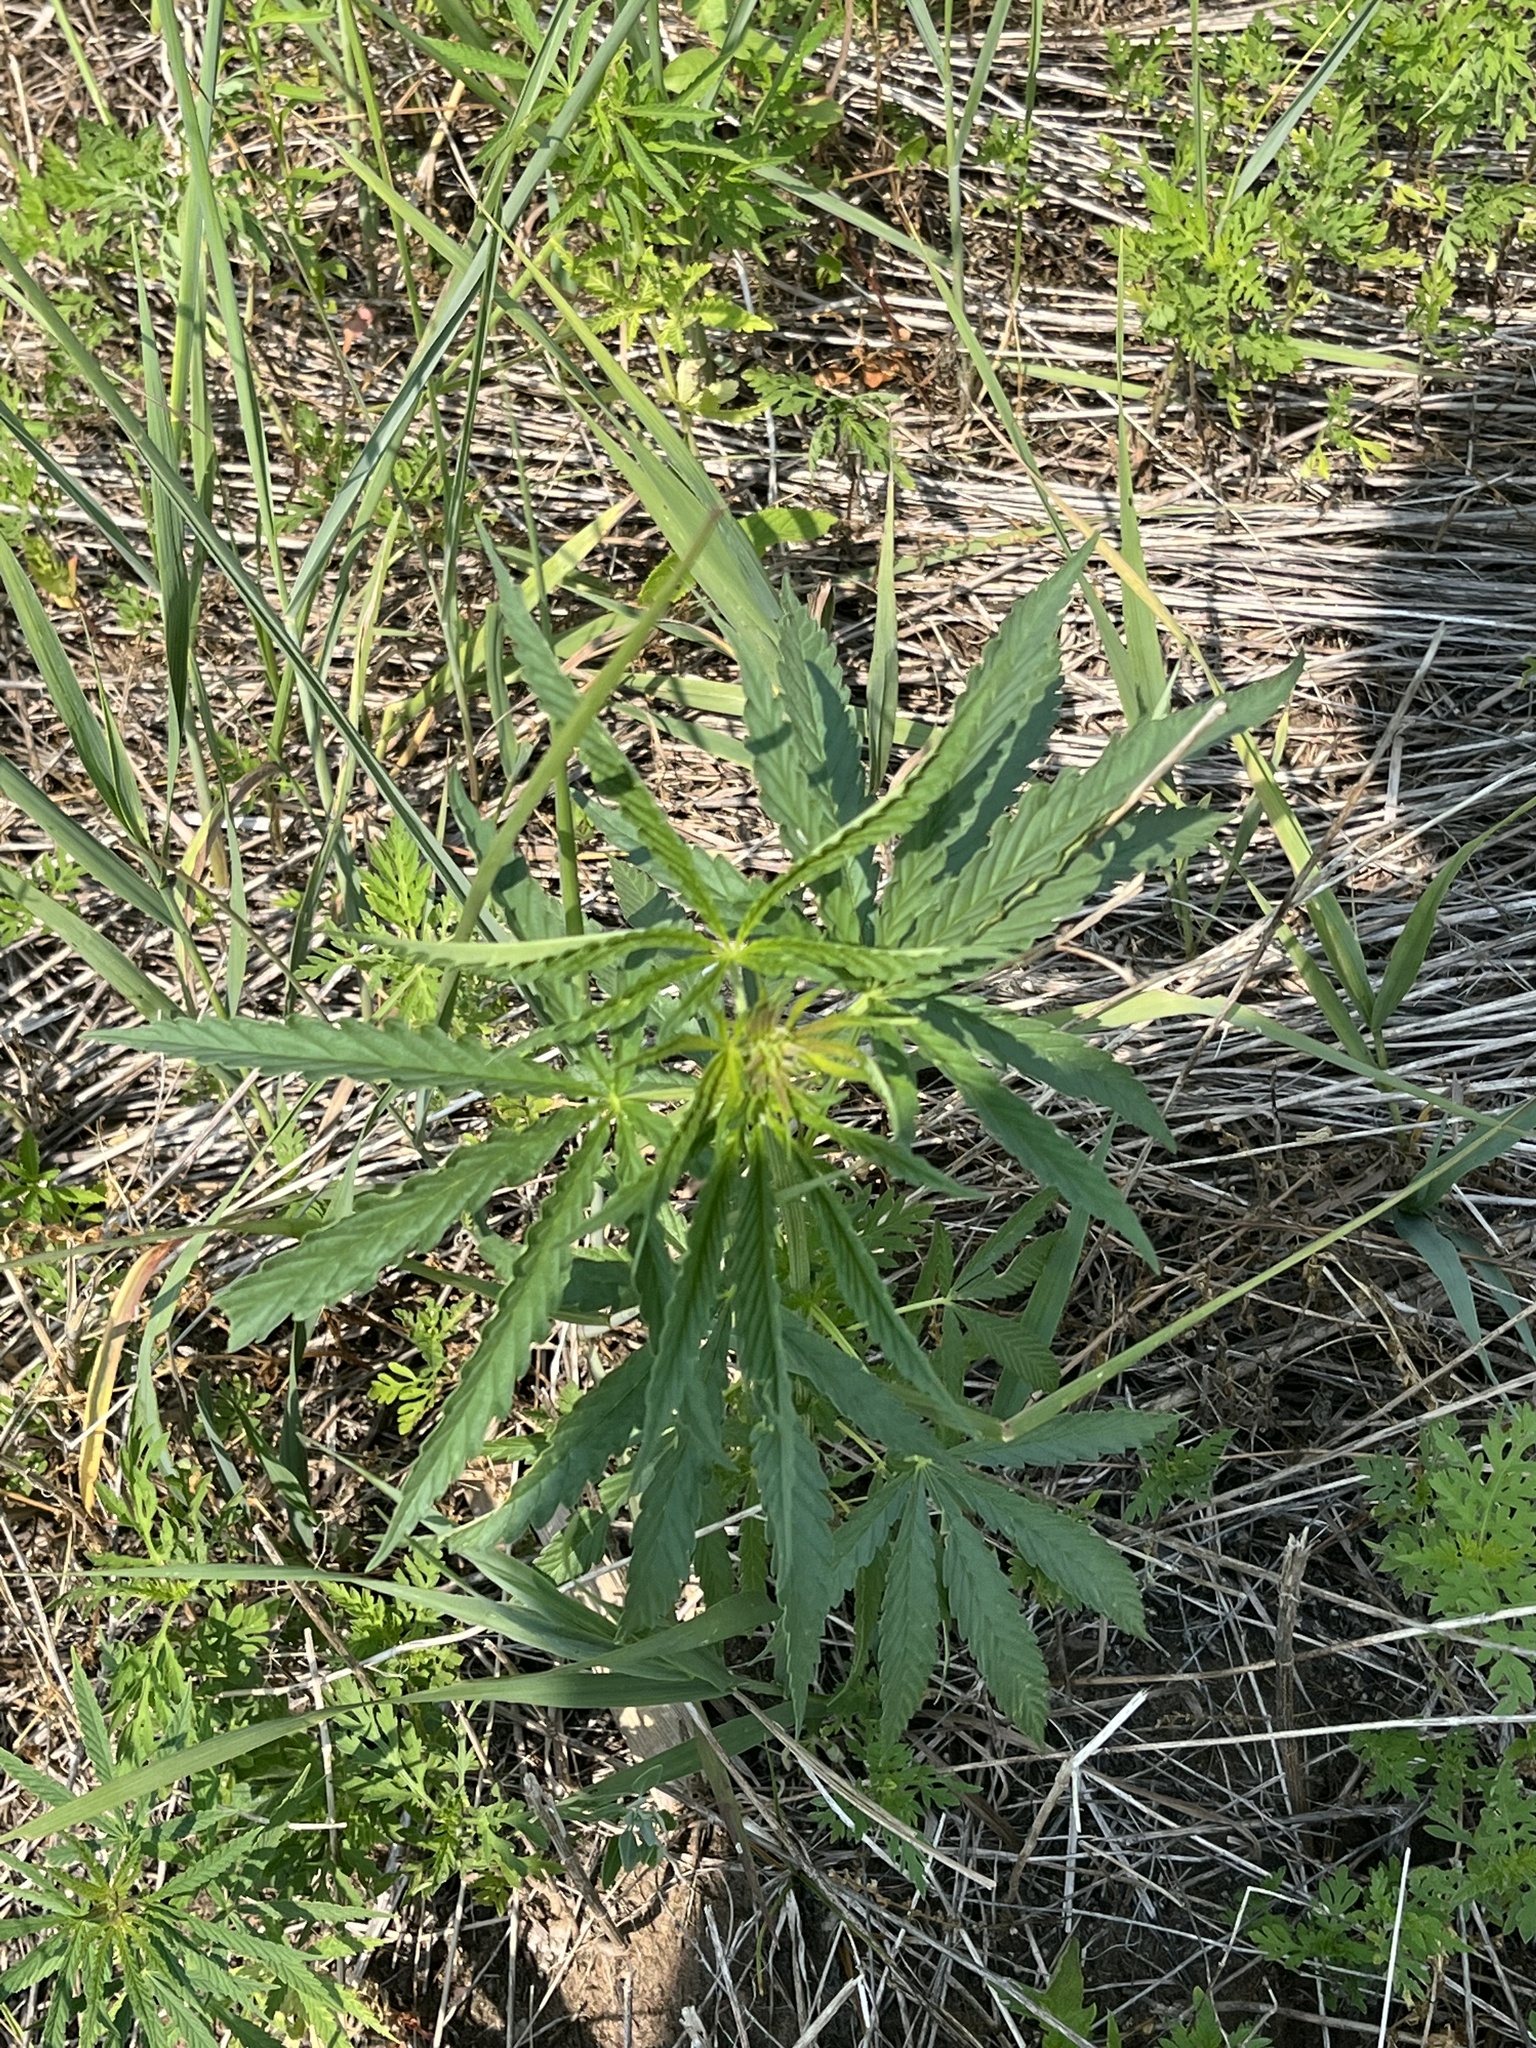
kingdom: Plantae
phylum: Tracheophyta
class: Magnoliopsida
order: Rosales
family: Cannabaceae
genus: Cannabis
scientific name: Cannabis sativa
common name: Hemp
